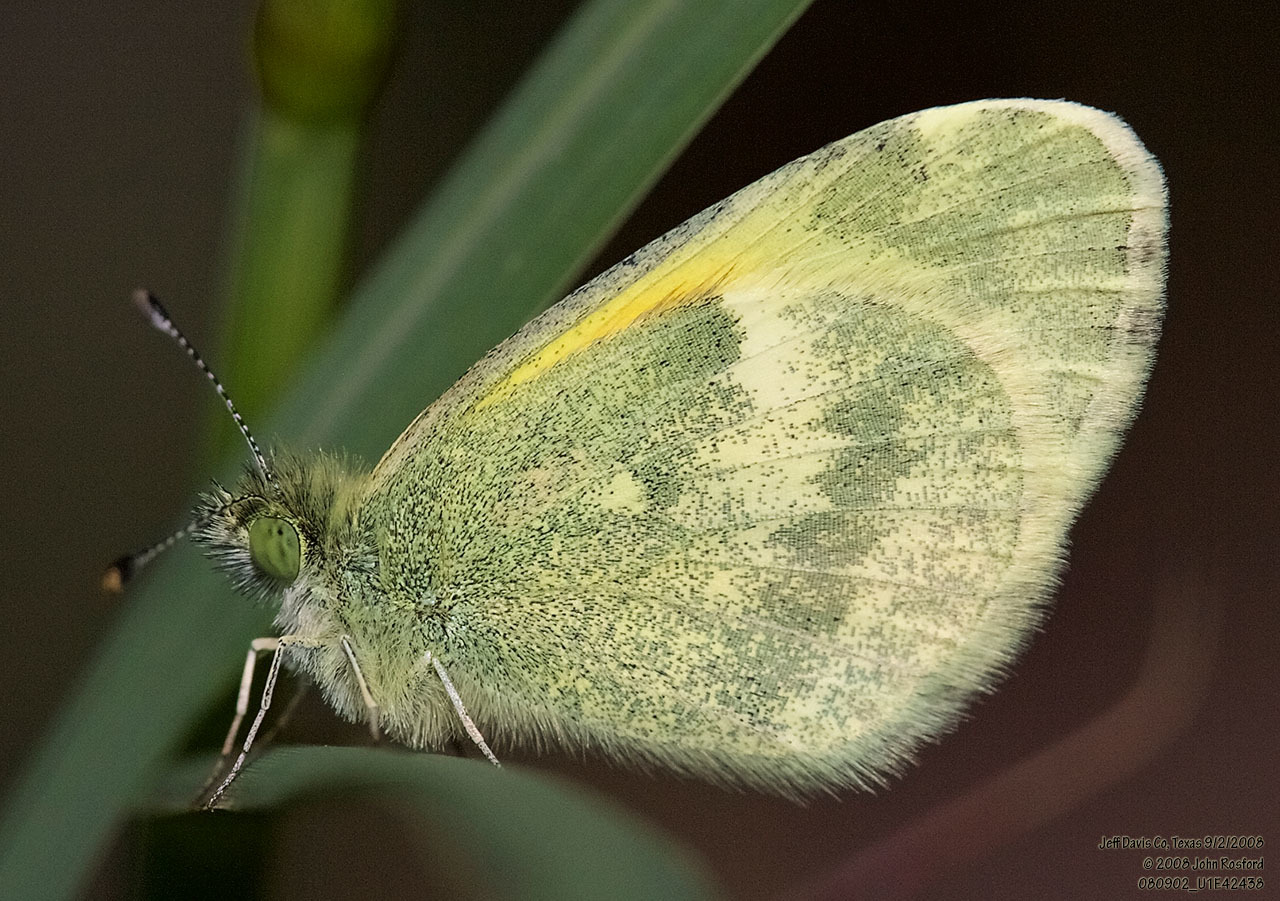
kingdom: Animalia
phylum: Arthropoda
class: Insecta
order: Lepidoptera
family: Pieridae
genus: Nathalis
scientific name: Nathalis iole
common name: Dainty sulphur
